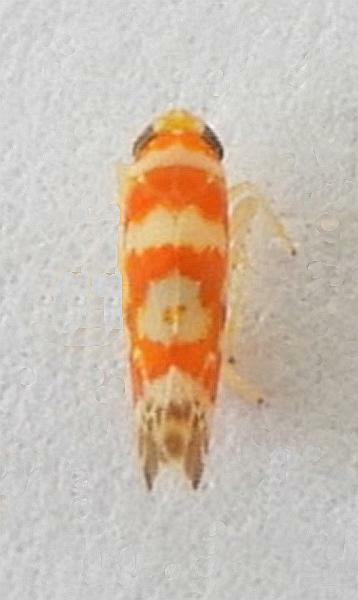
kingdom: Animalia
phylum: Arthropoda
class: Insecta
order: Hemiptera
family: Cicadellidae
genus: Zyginama
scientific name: Zyginama spectabilis
